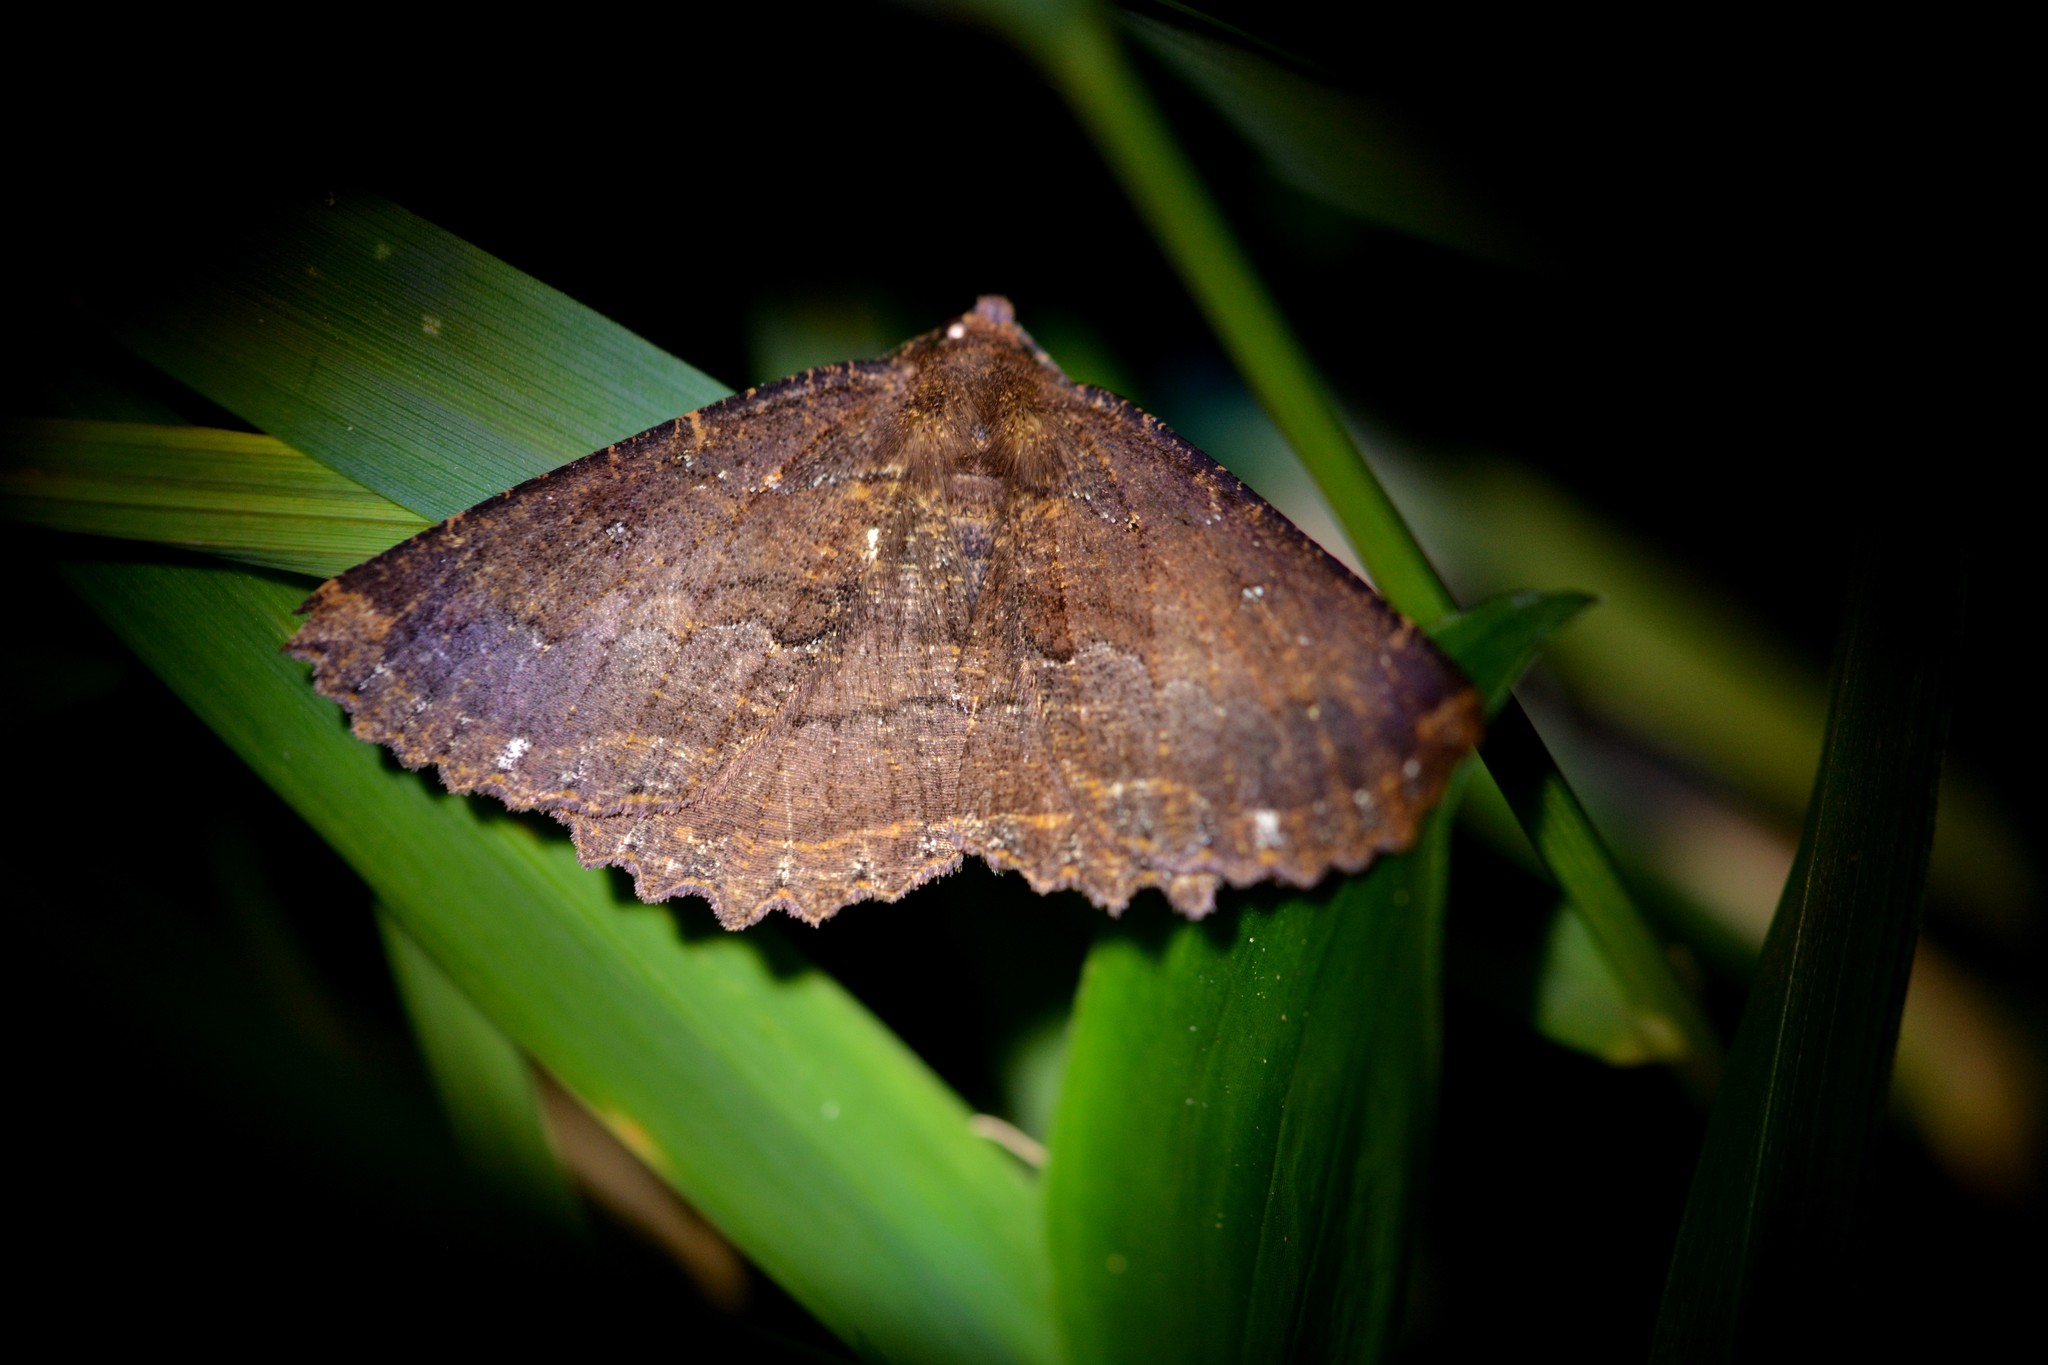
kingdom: Animalia
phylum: Arthropoda
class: Insecta
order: Lepidoptera
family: Geometridae
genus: Gellonia
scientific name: Gellonia dejectaria
